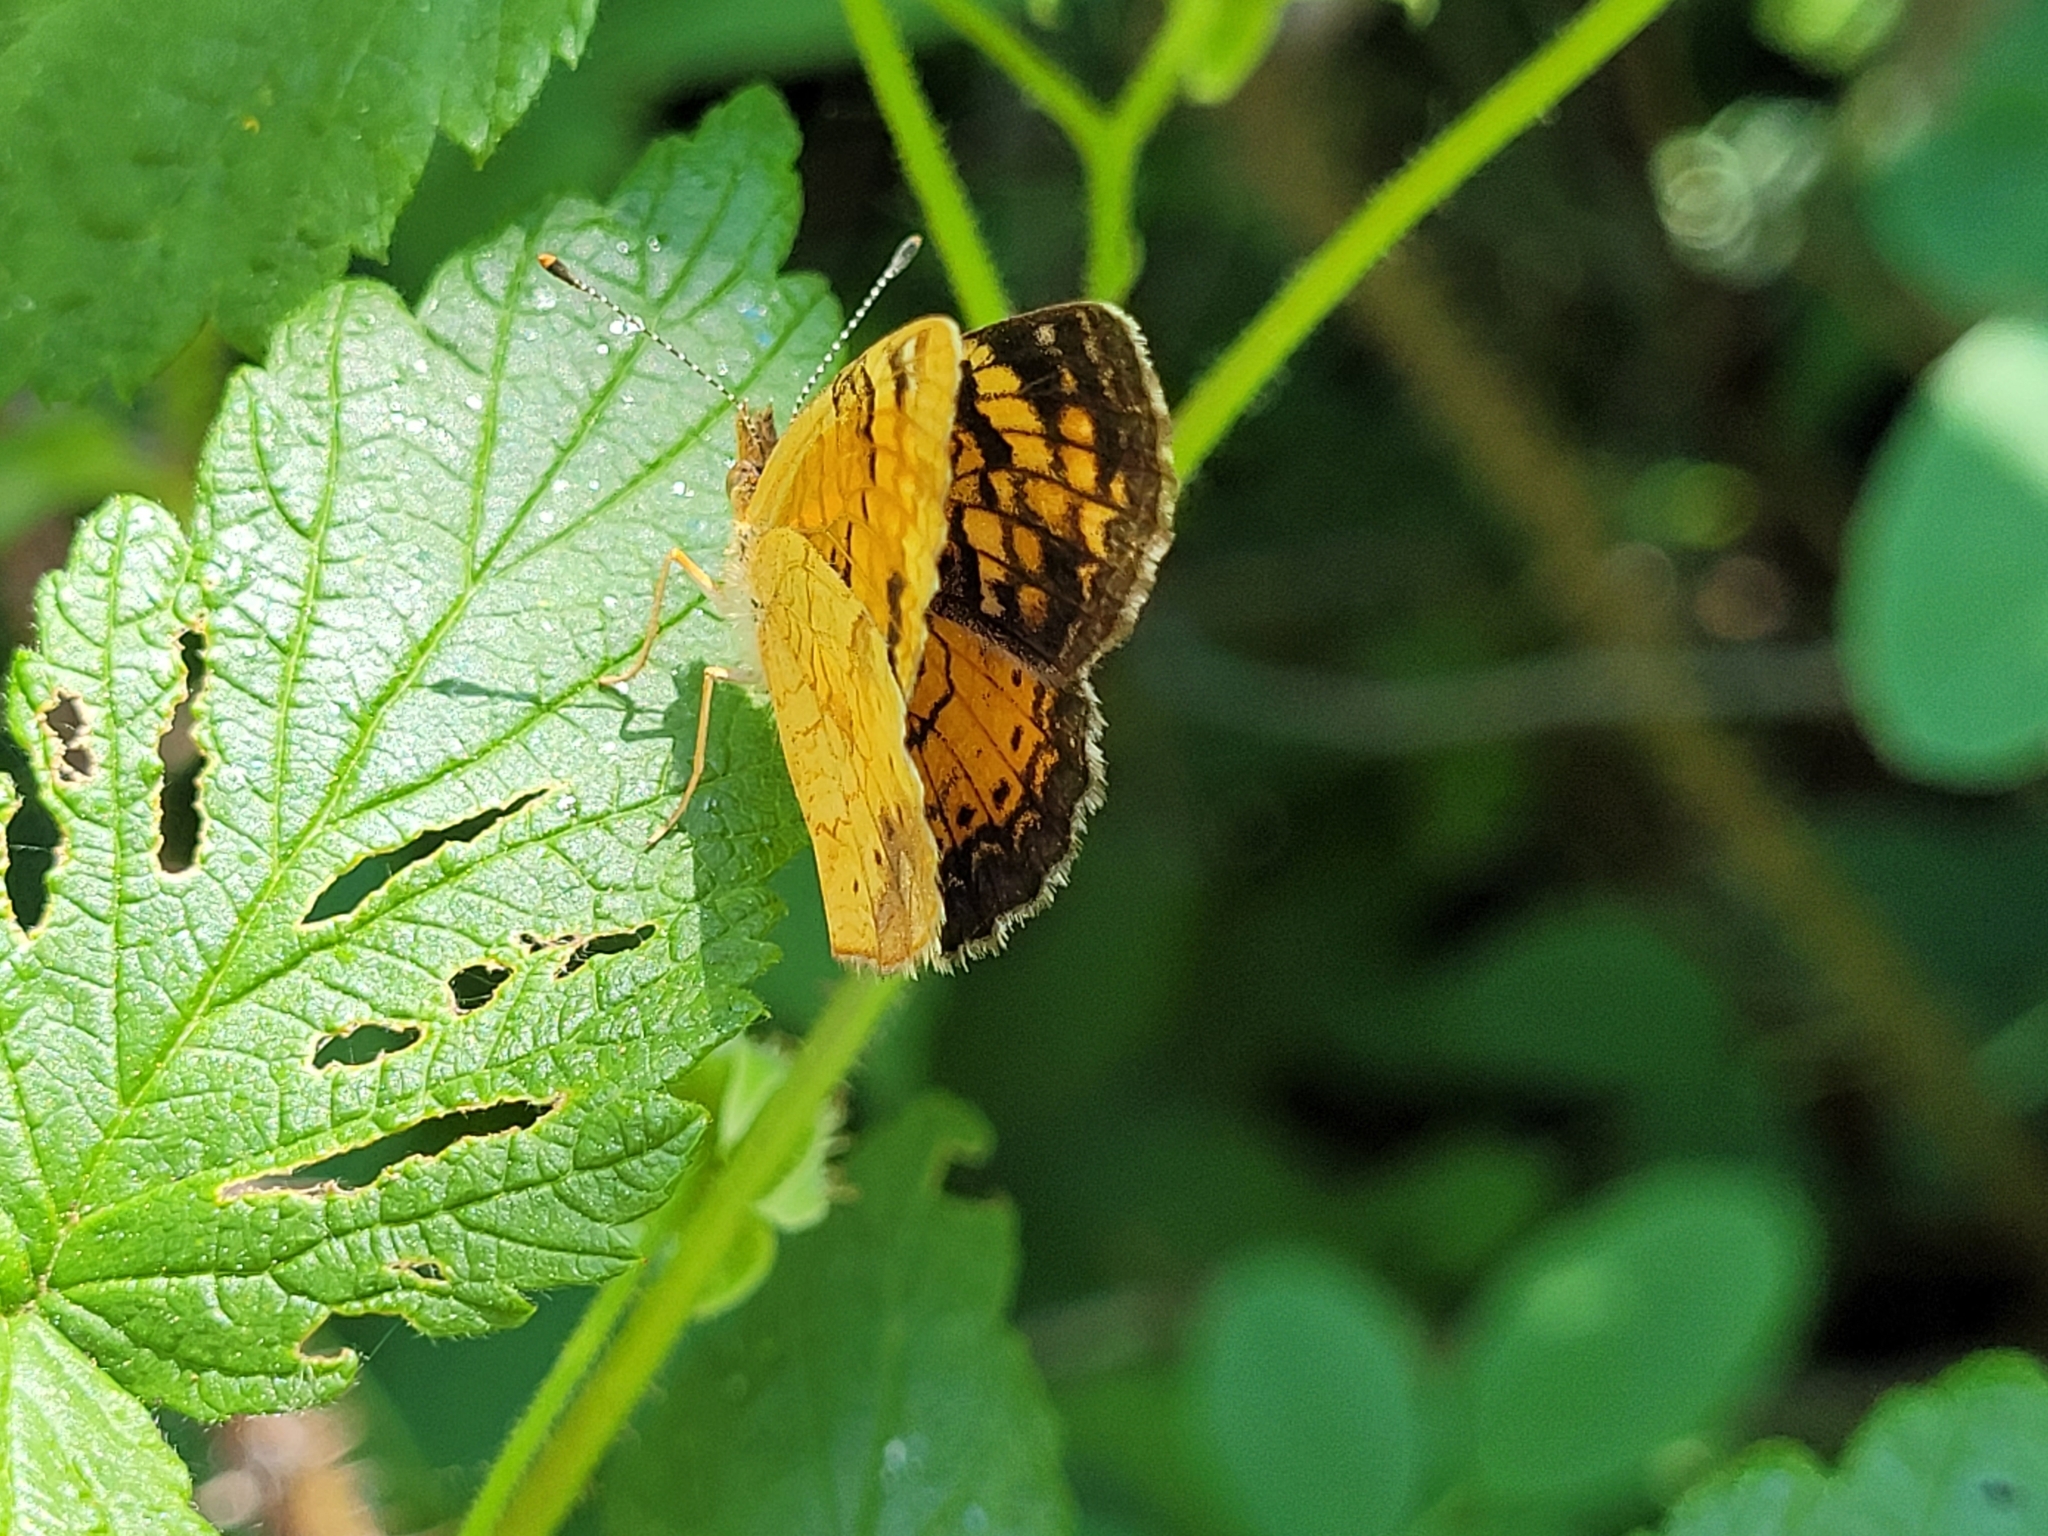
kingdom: Animalia
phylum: Arthropoda
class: Insecta
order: Lepidoptera
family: Nymphalidae
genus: Phyciodes
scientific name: Phyciodes tharos
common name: Pearl crescent
